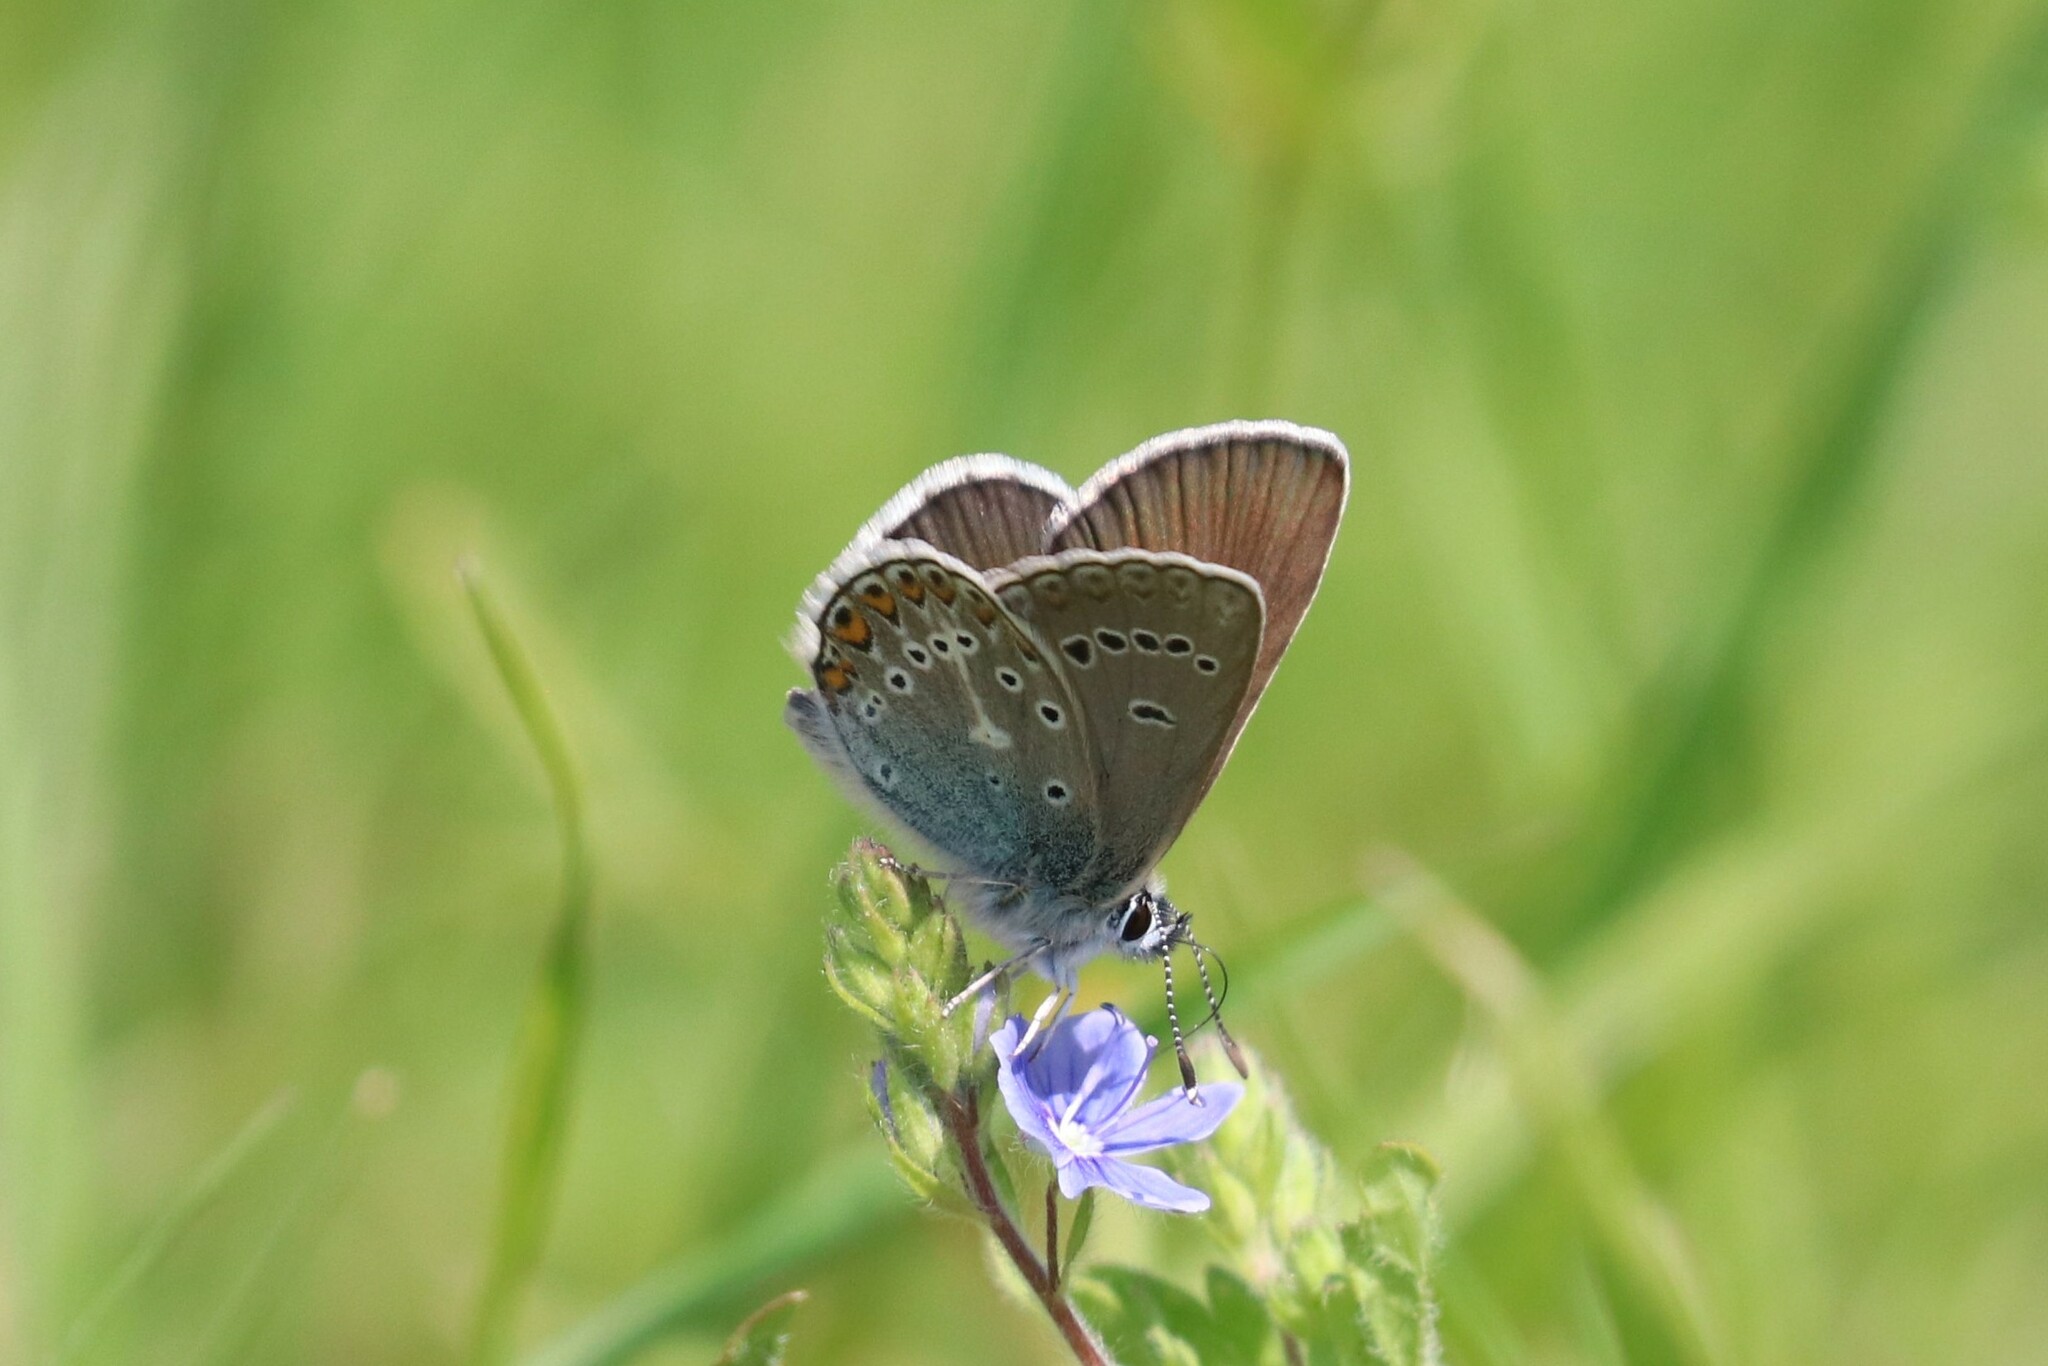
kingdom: Animalia
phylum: Arthropoda
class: Insecta
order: Lepidoptera
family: Lycaenidae
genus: Eumedonia
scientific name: Eumedonia eumedon
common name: Geranium argus
